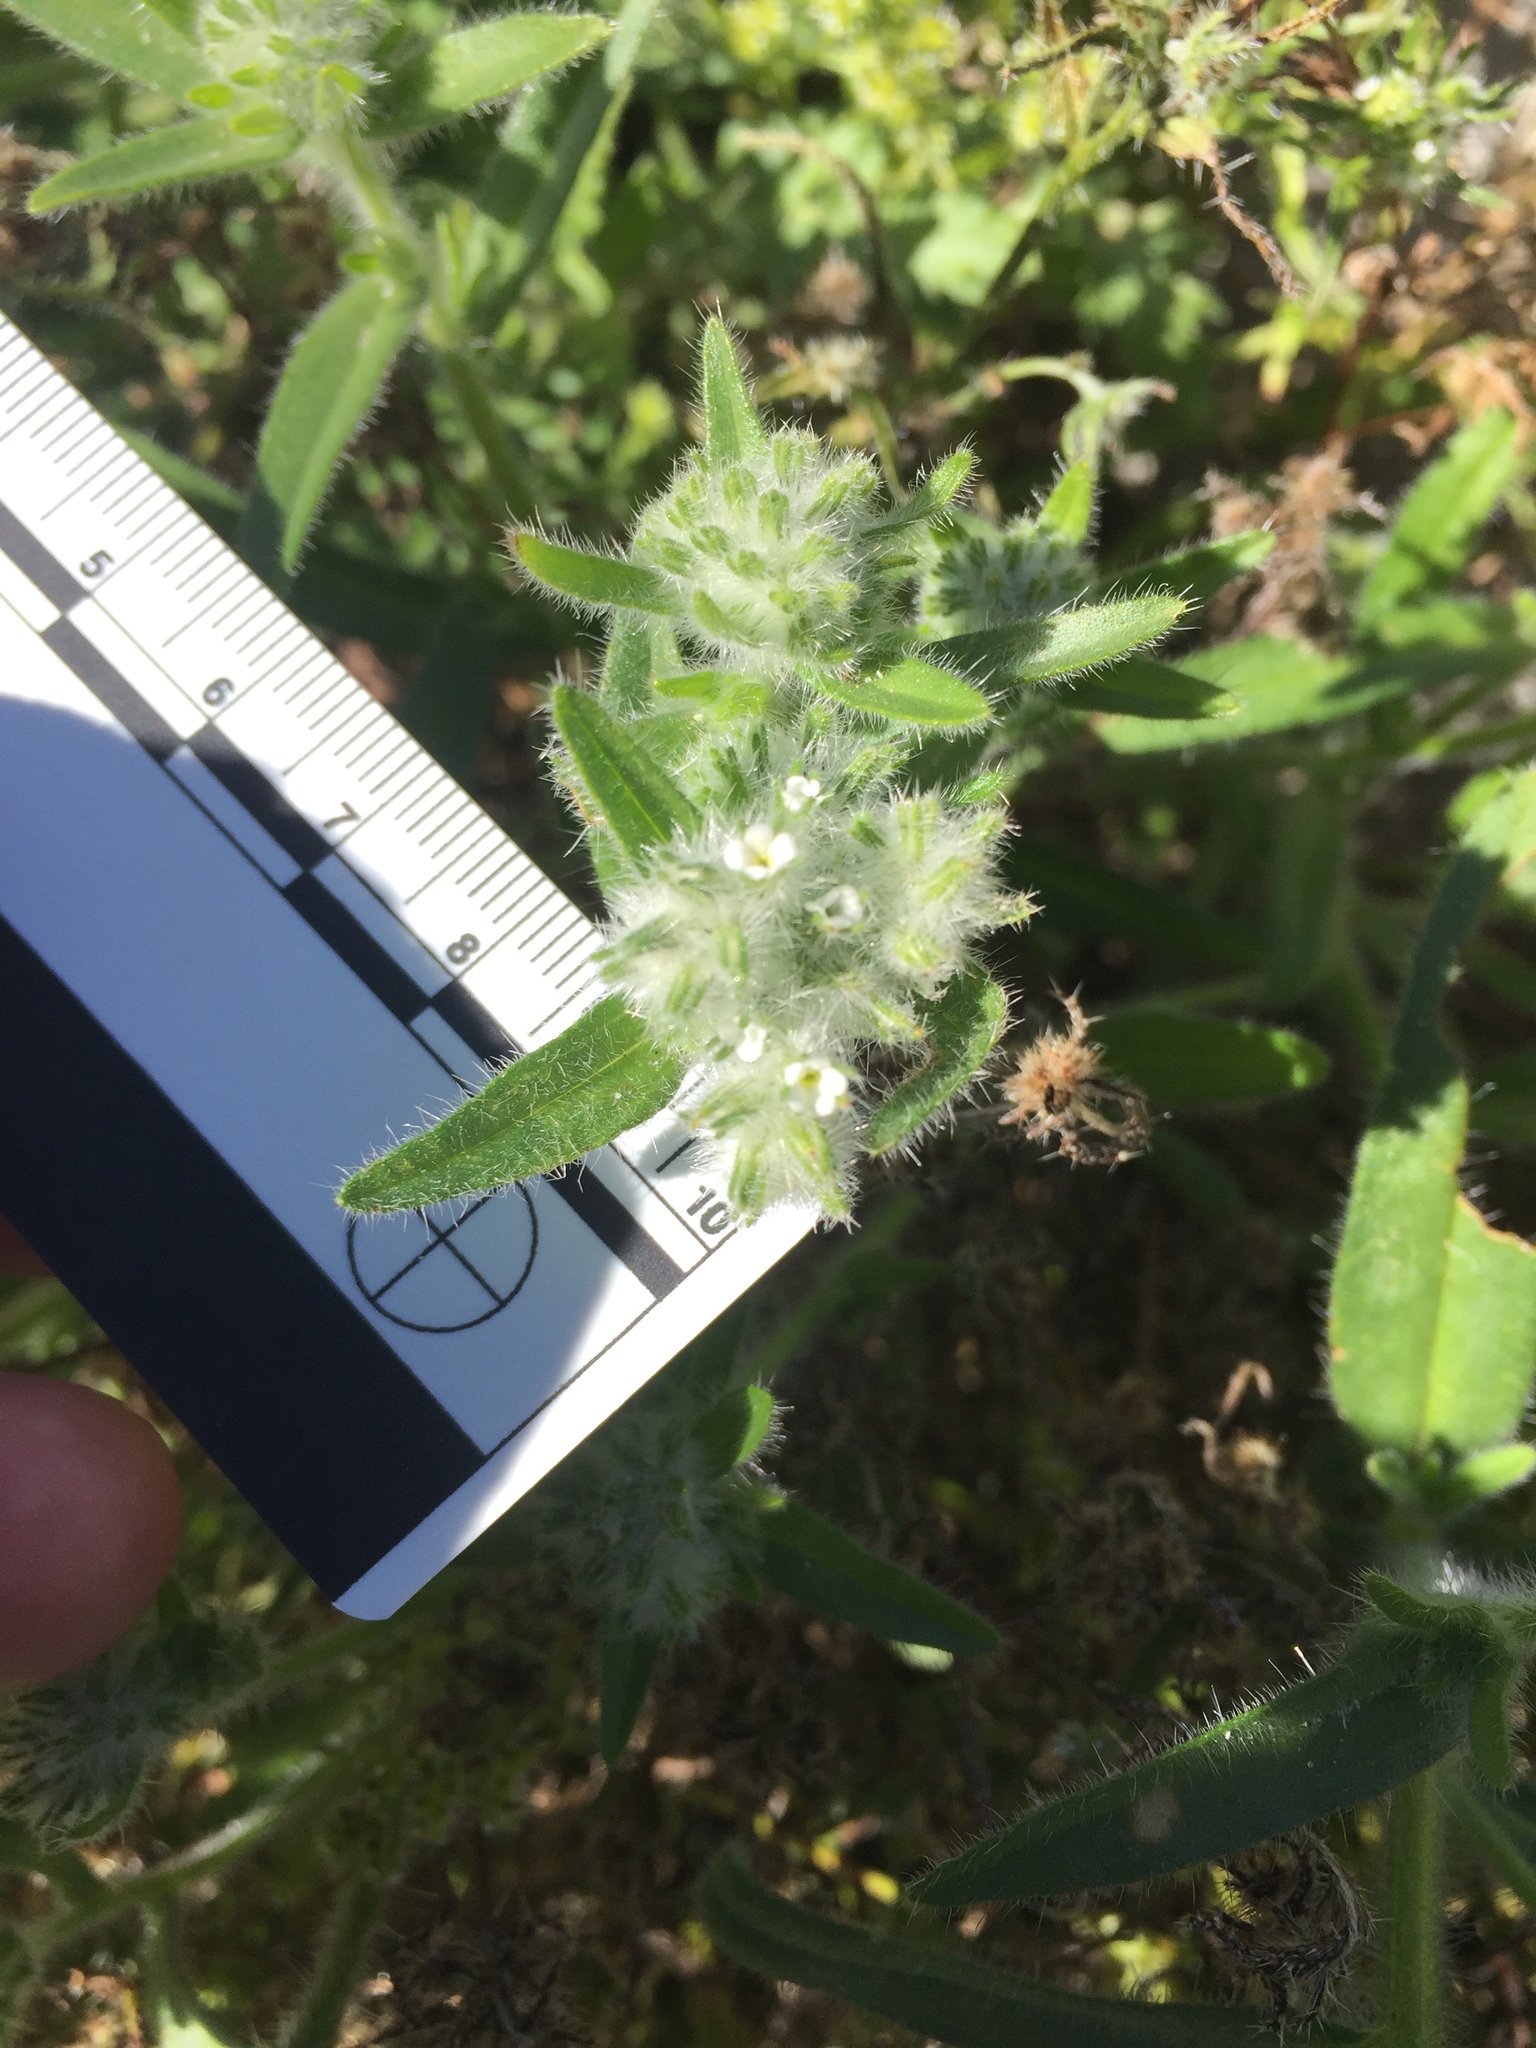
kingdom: Plantae
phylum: Tracheophyta
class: Magnoliopsida
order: Boraginales
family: Boraginaceae
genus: Cryptantha
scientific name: Cryptantha barbigera
